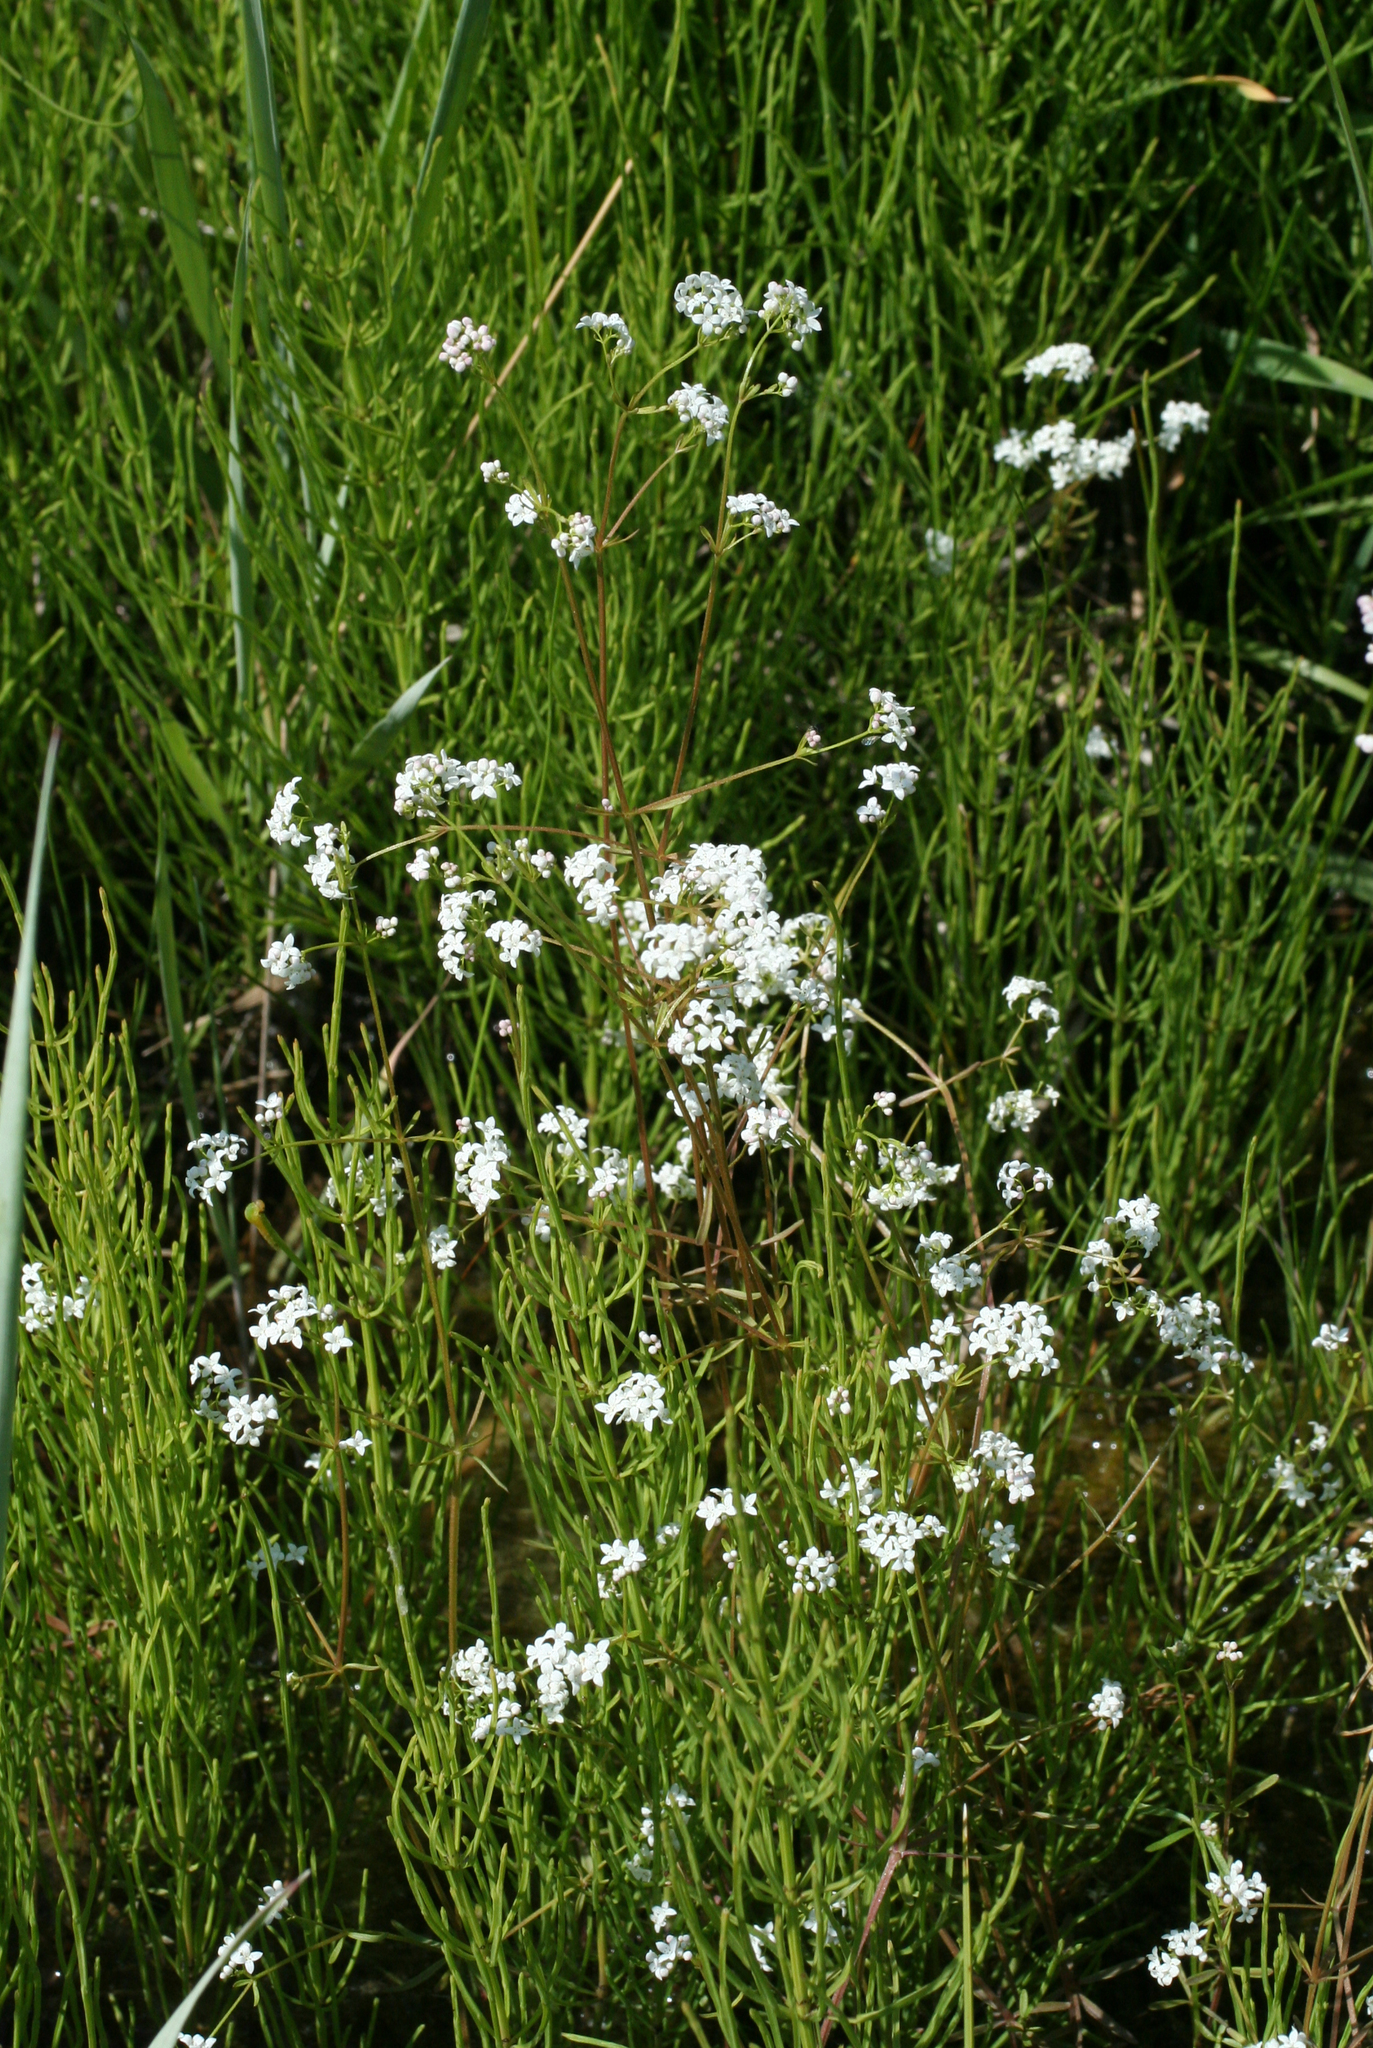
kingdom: Plantae
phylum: Tracheophyta
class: Magnoliopsida
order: Gentianales
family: Rubiaceae
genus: Galium
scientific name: Galium palustre
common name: Common marsh-bedstraw
